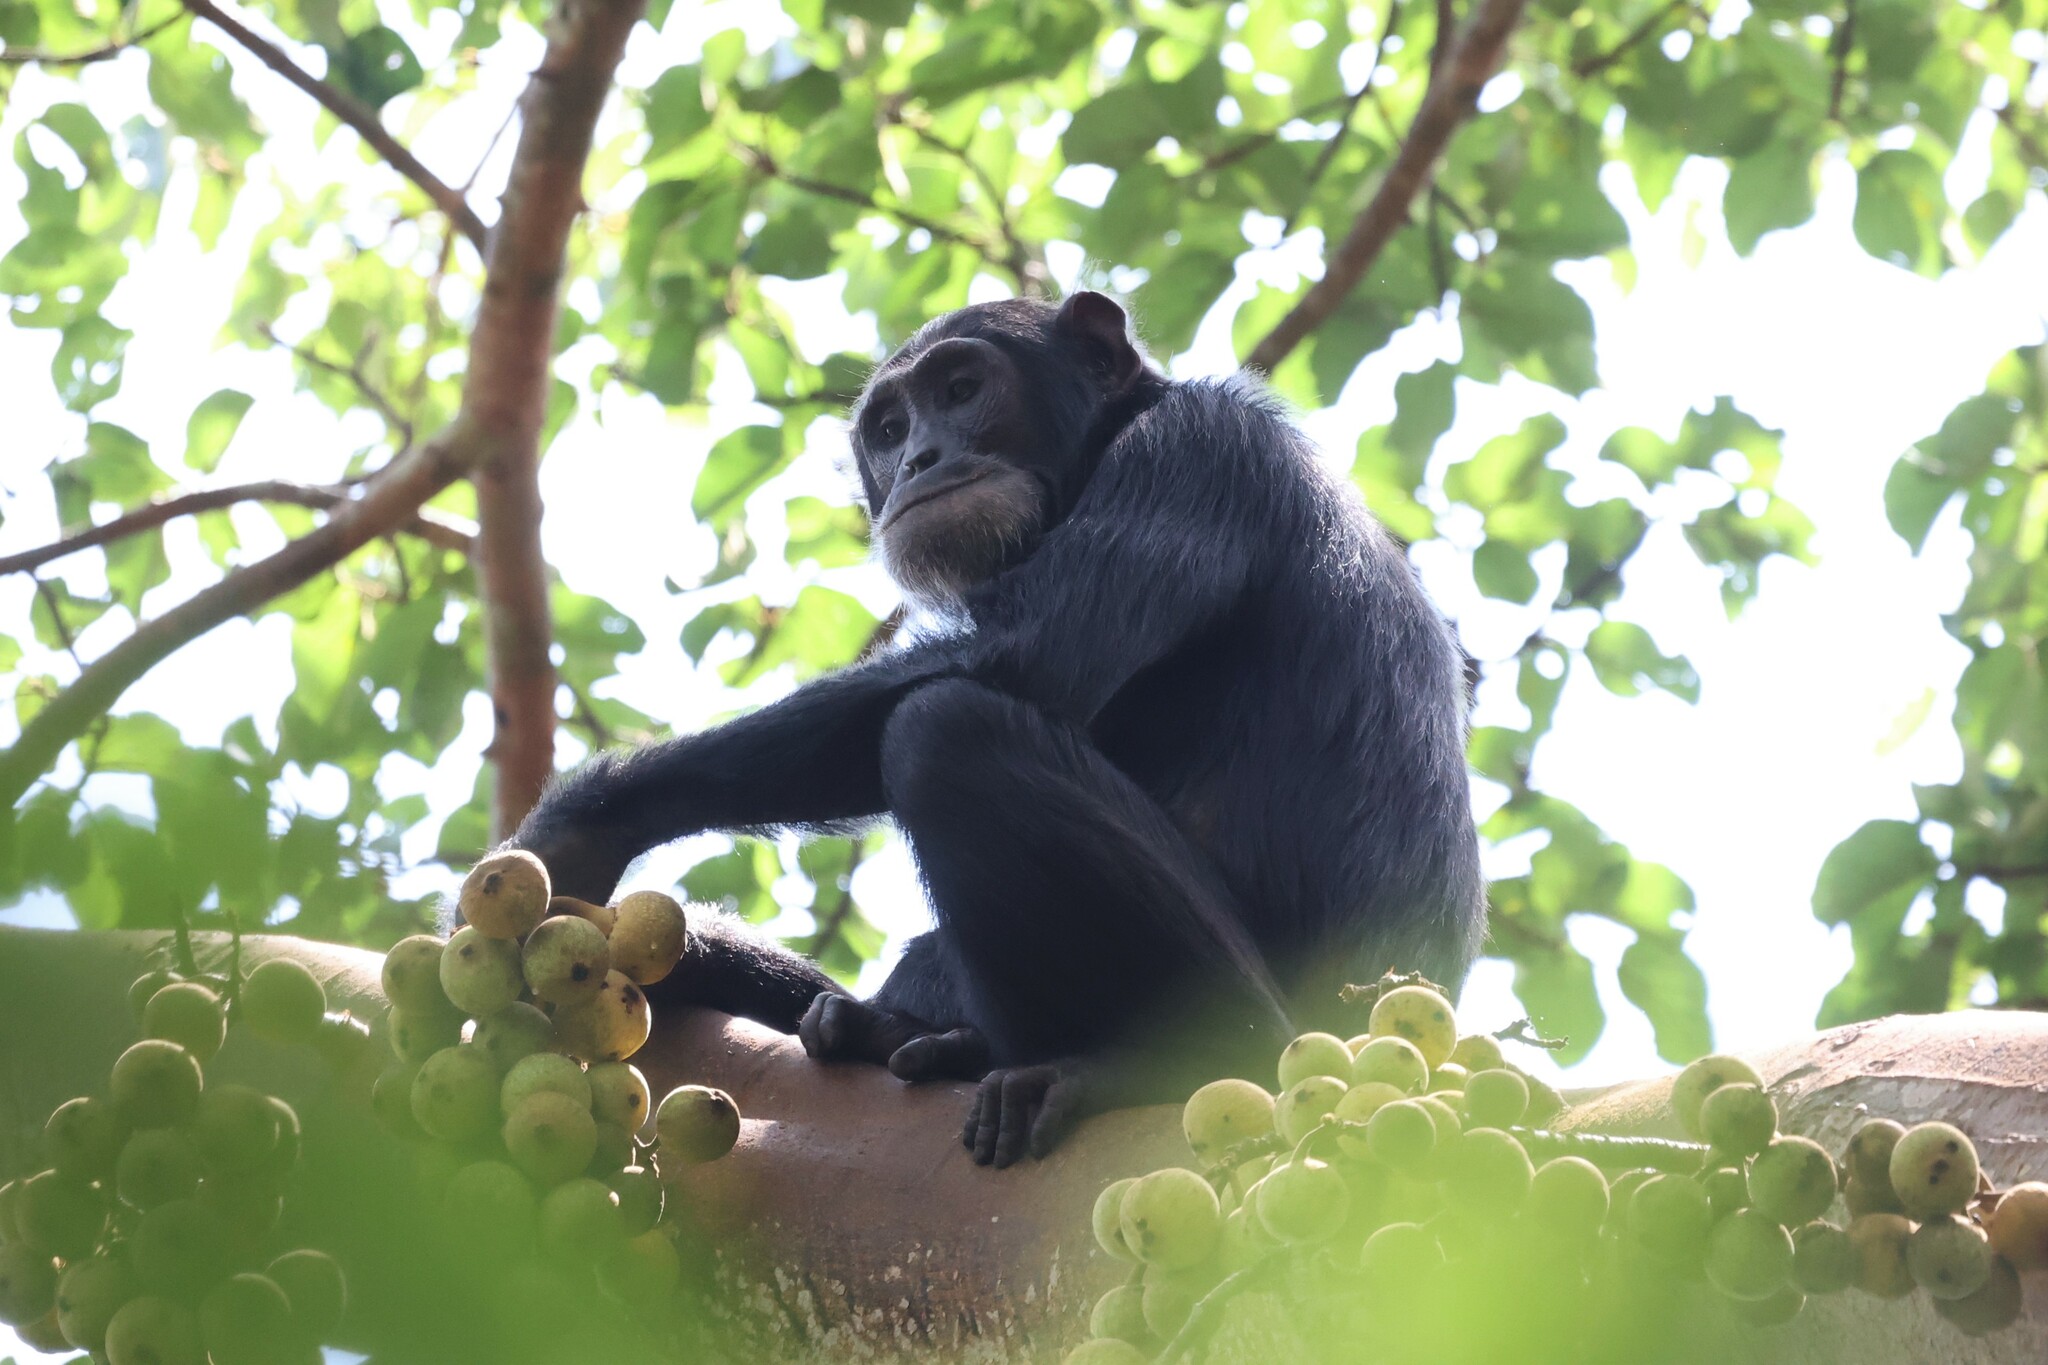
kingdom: Animalia
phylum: Chordata
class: Mammalia
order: Primates
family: Hominidae
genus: Pan
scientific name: Pan troglodytes
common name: Chimpanzee
